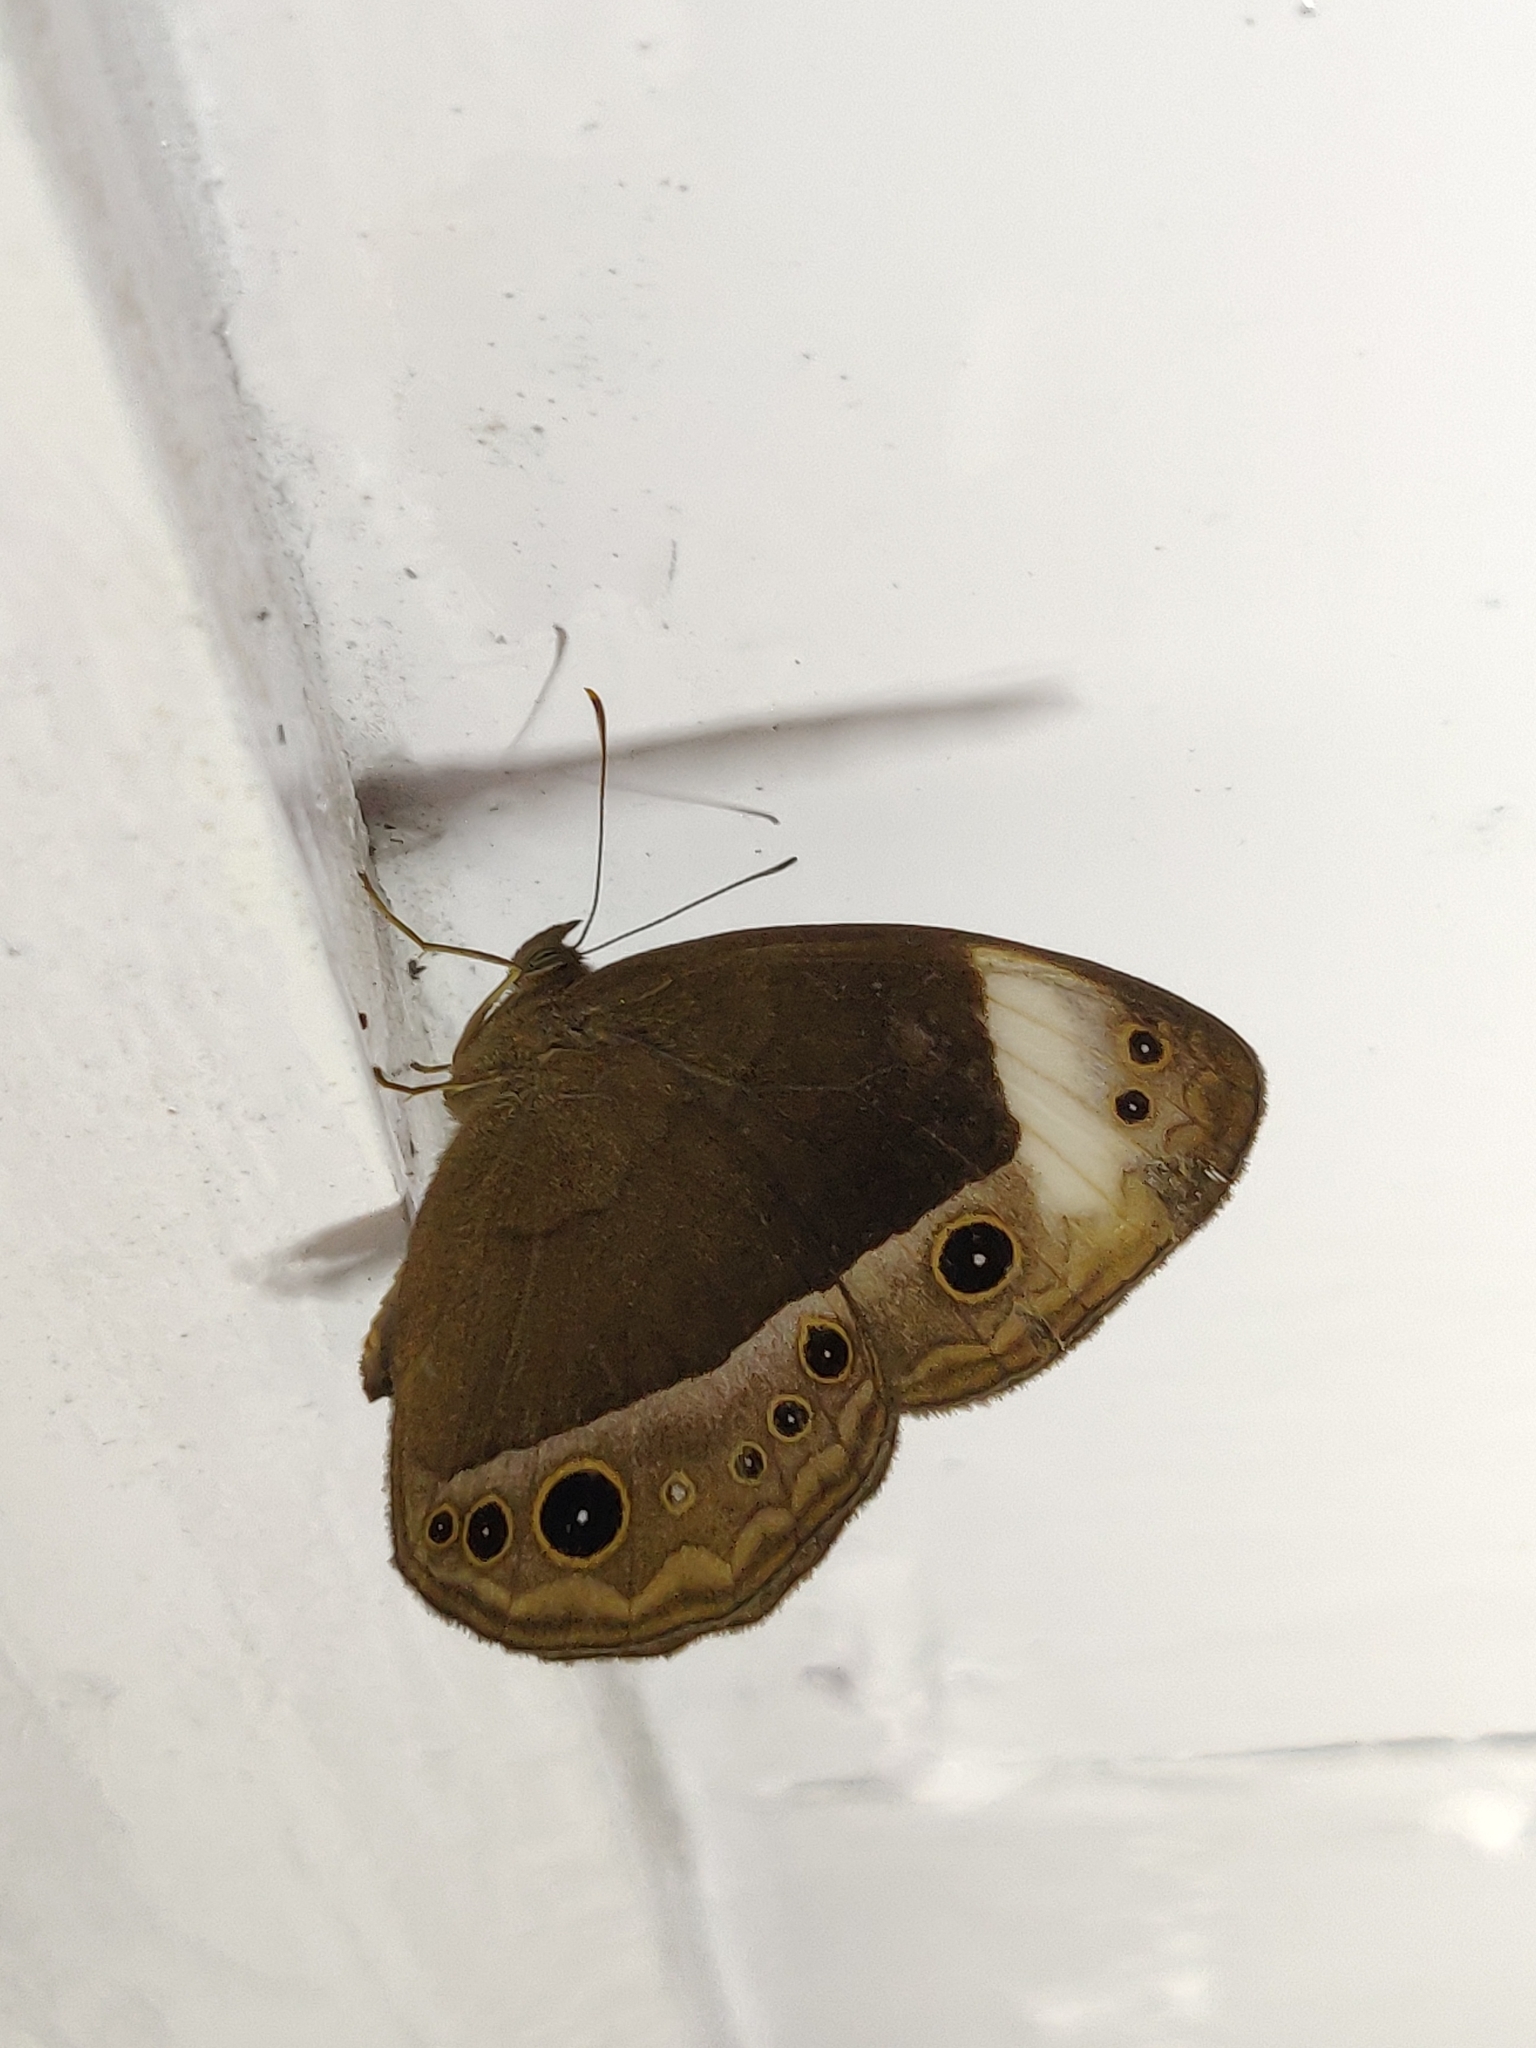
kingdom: Animalia
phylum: Arthropoda
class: Insecta
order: Lepidoptera
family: Nymphalidae
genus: Mycalesis
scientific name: Mycalesis anaxias
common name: White-bar bushbrown
